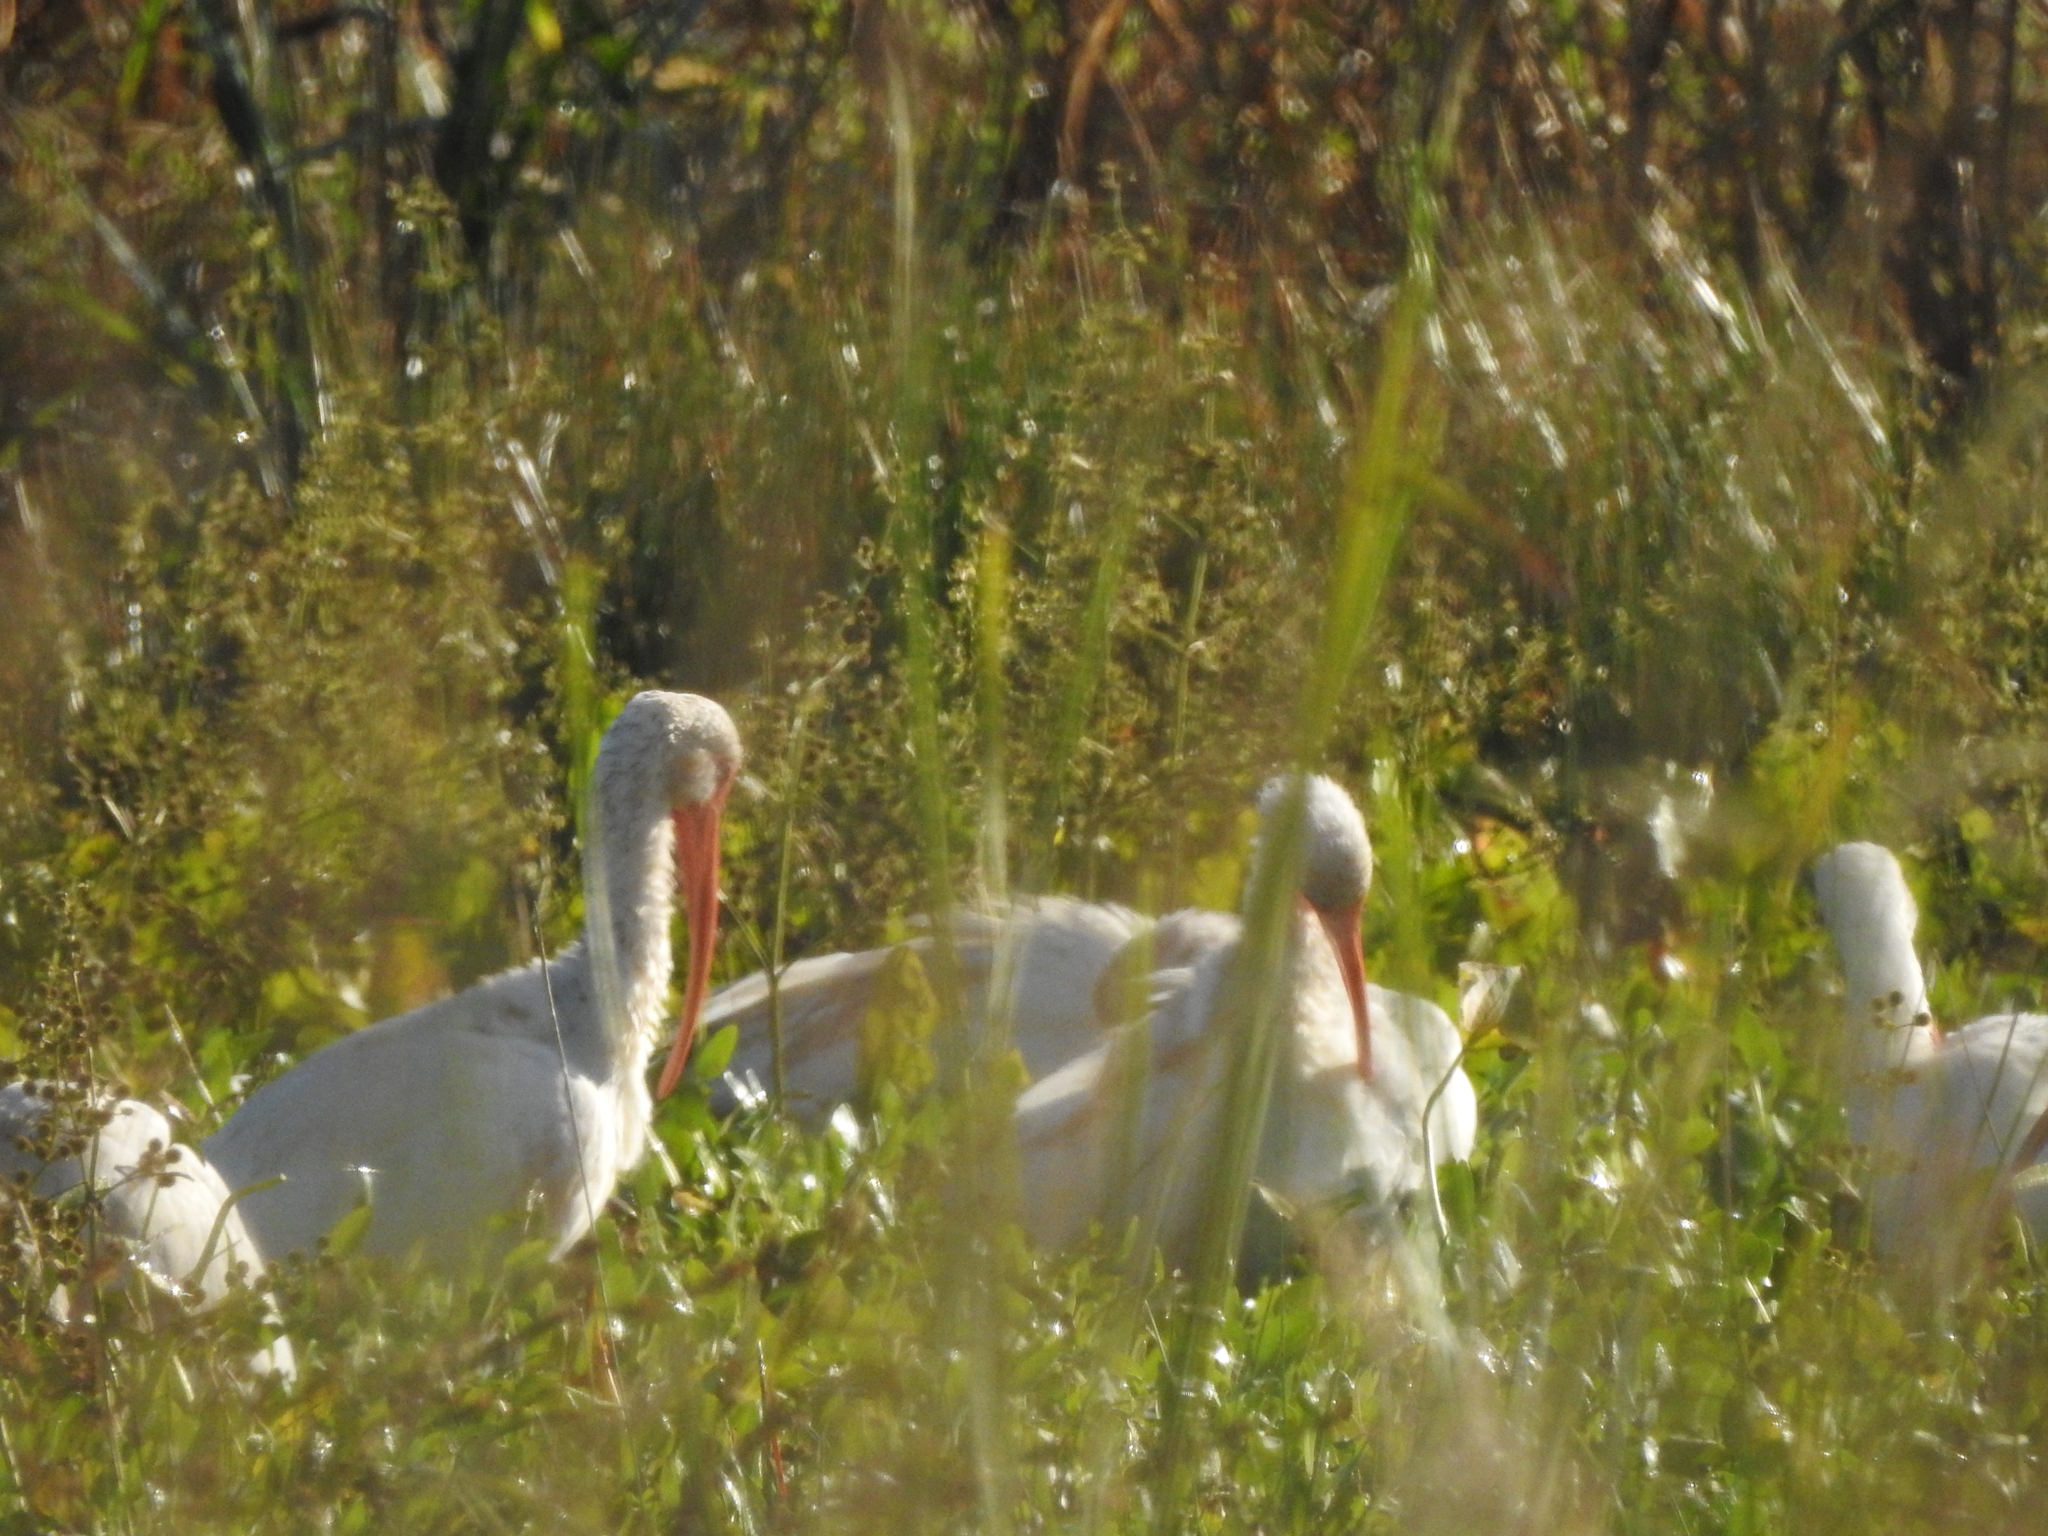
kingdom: Animalia
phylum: Chordata
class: Aves
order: Pelecaniformes
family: Threskiornithidae
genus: Eudocimus
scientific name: Eudocimus albus
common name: White ibis
